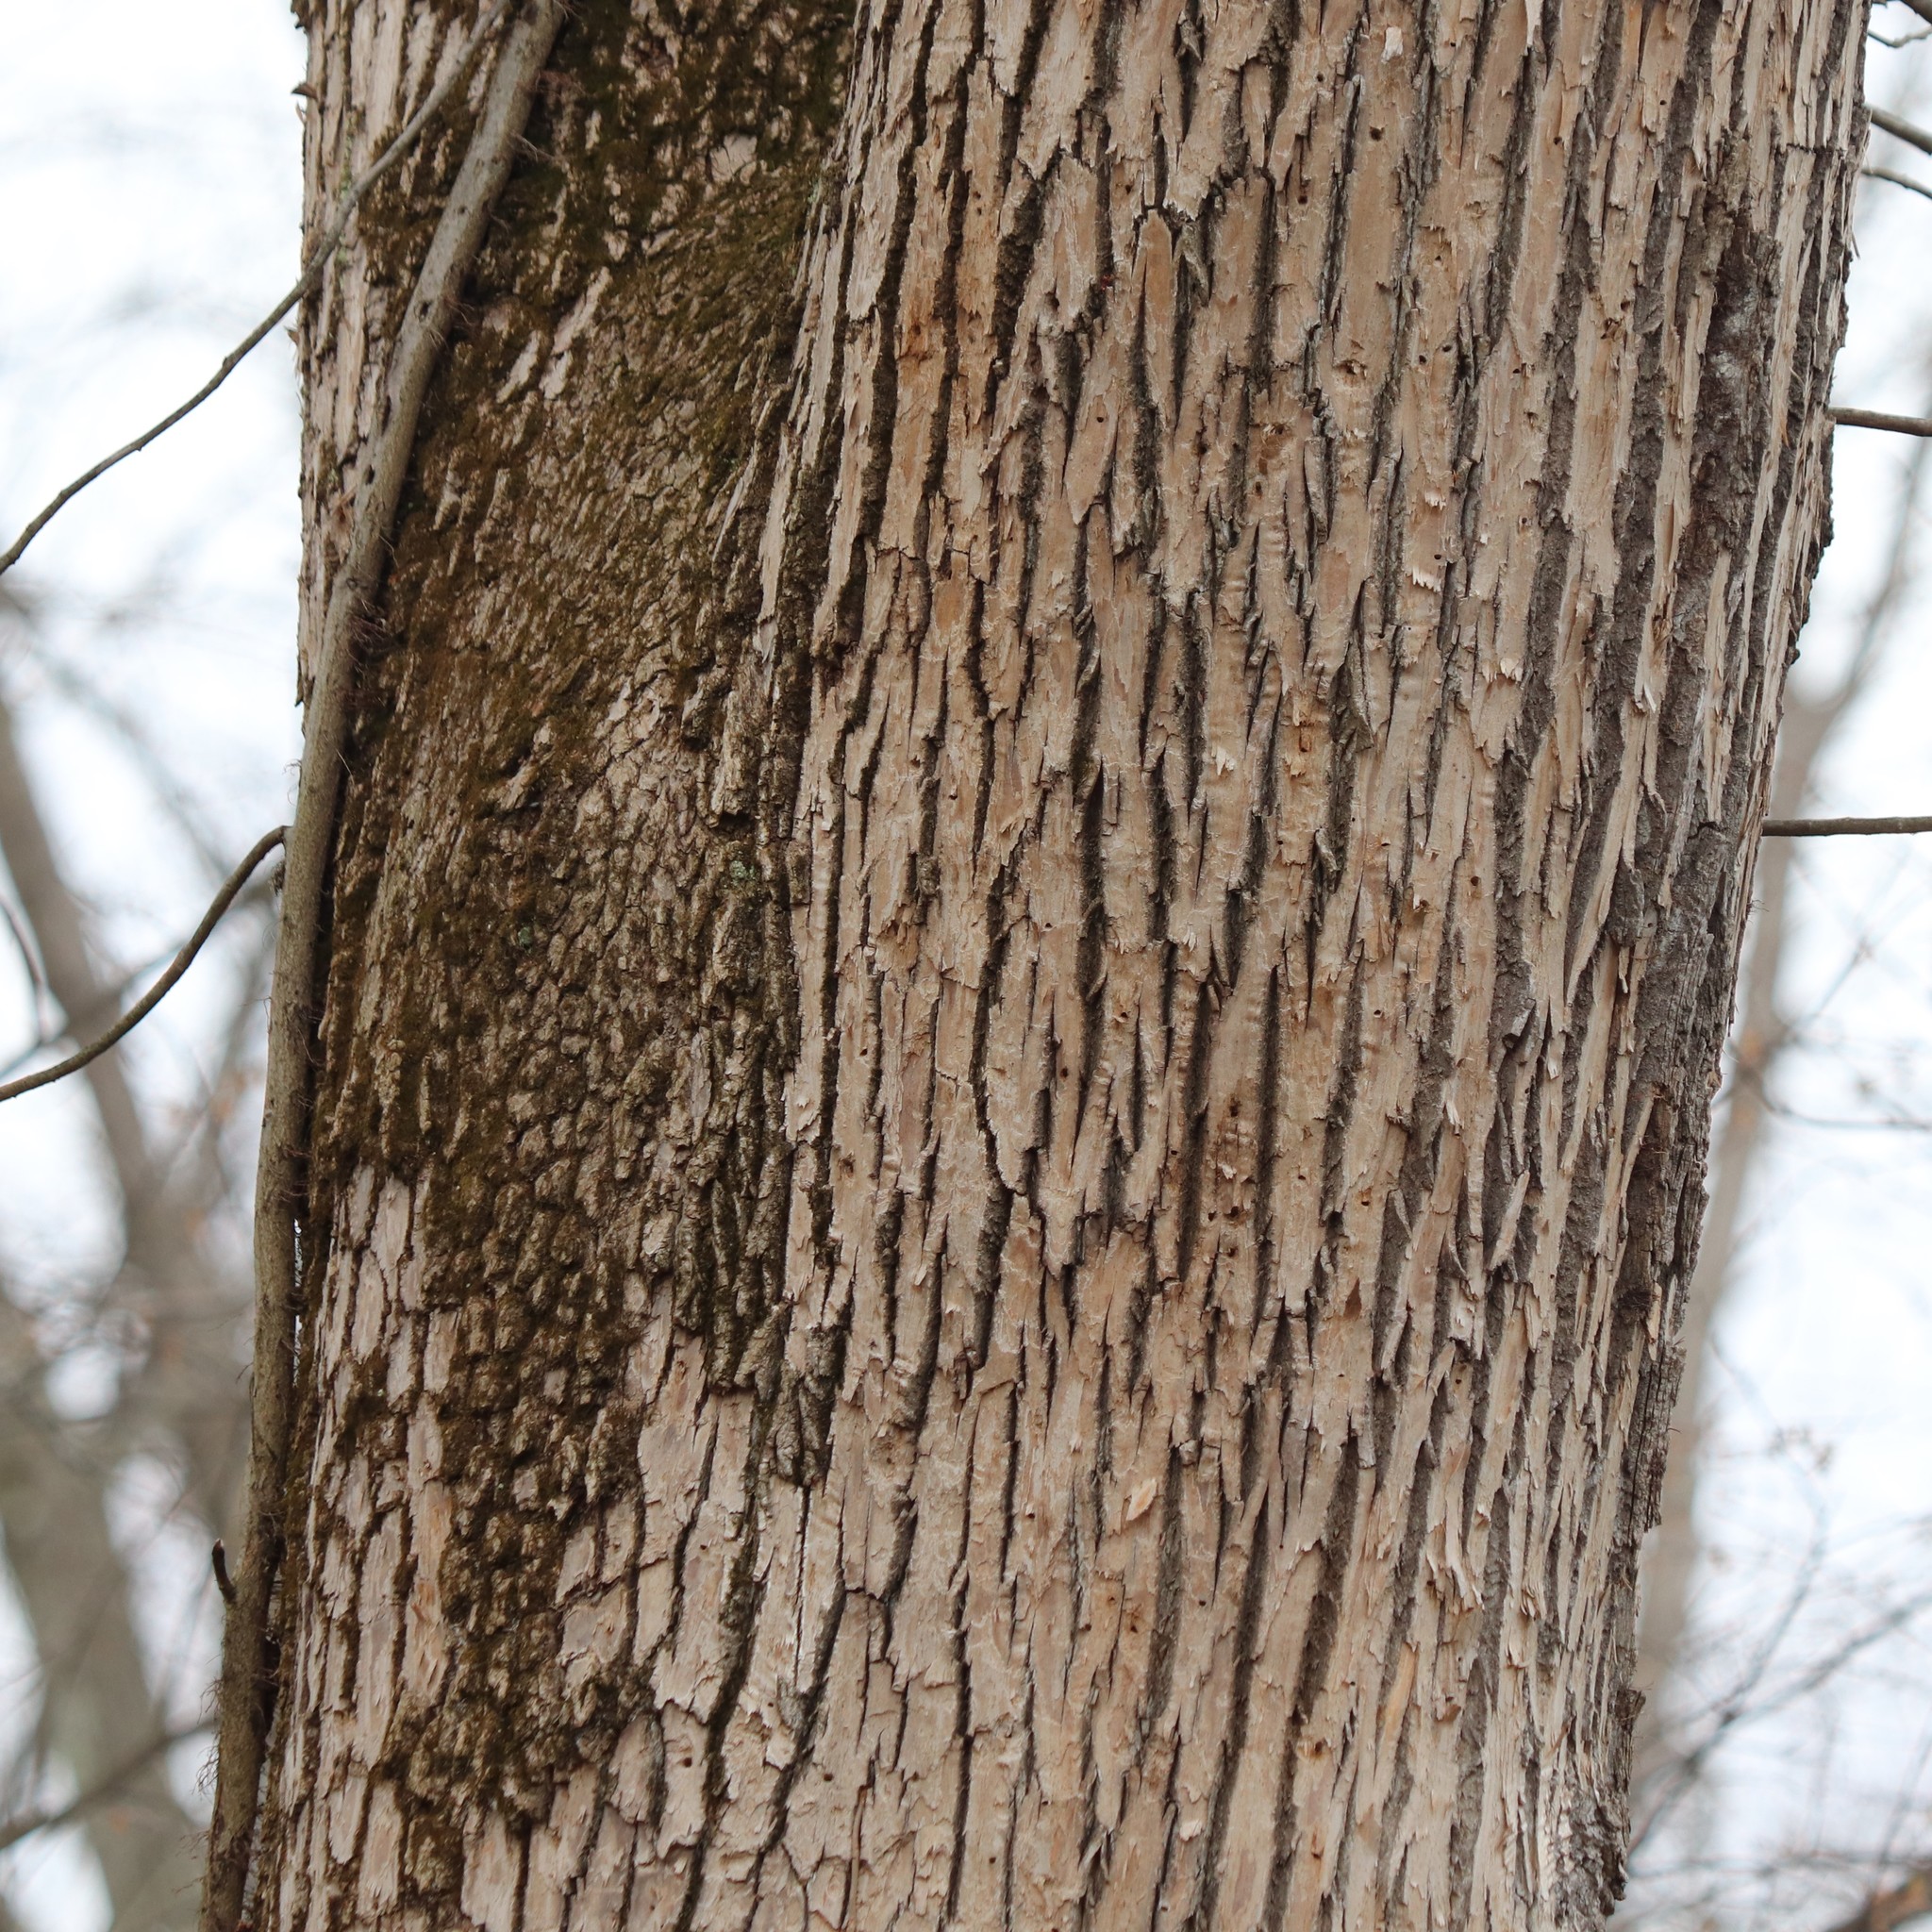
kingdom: Animalia
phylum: Arthropoda
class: Insecta
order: Coleoptera
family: Buprestidae
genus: Agrilus
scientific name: Agrilus planipennis
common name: Emerald ash borer
